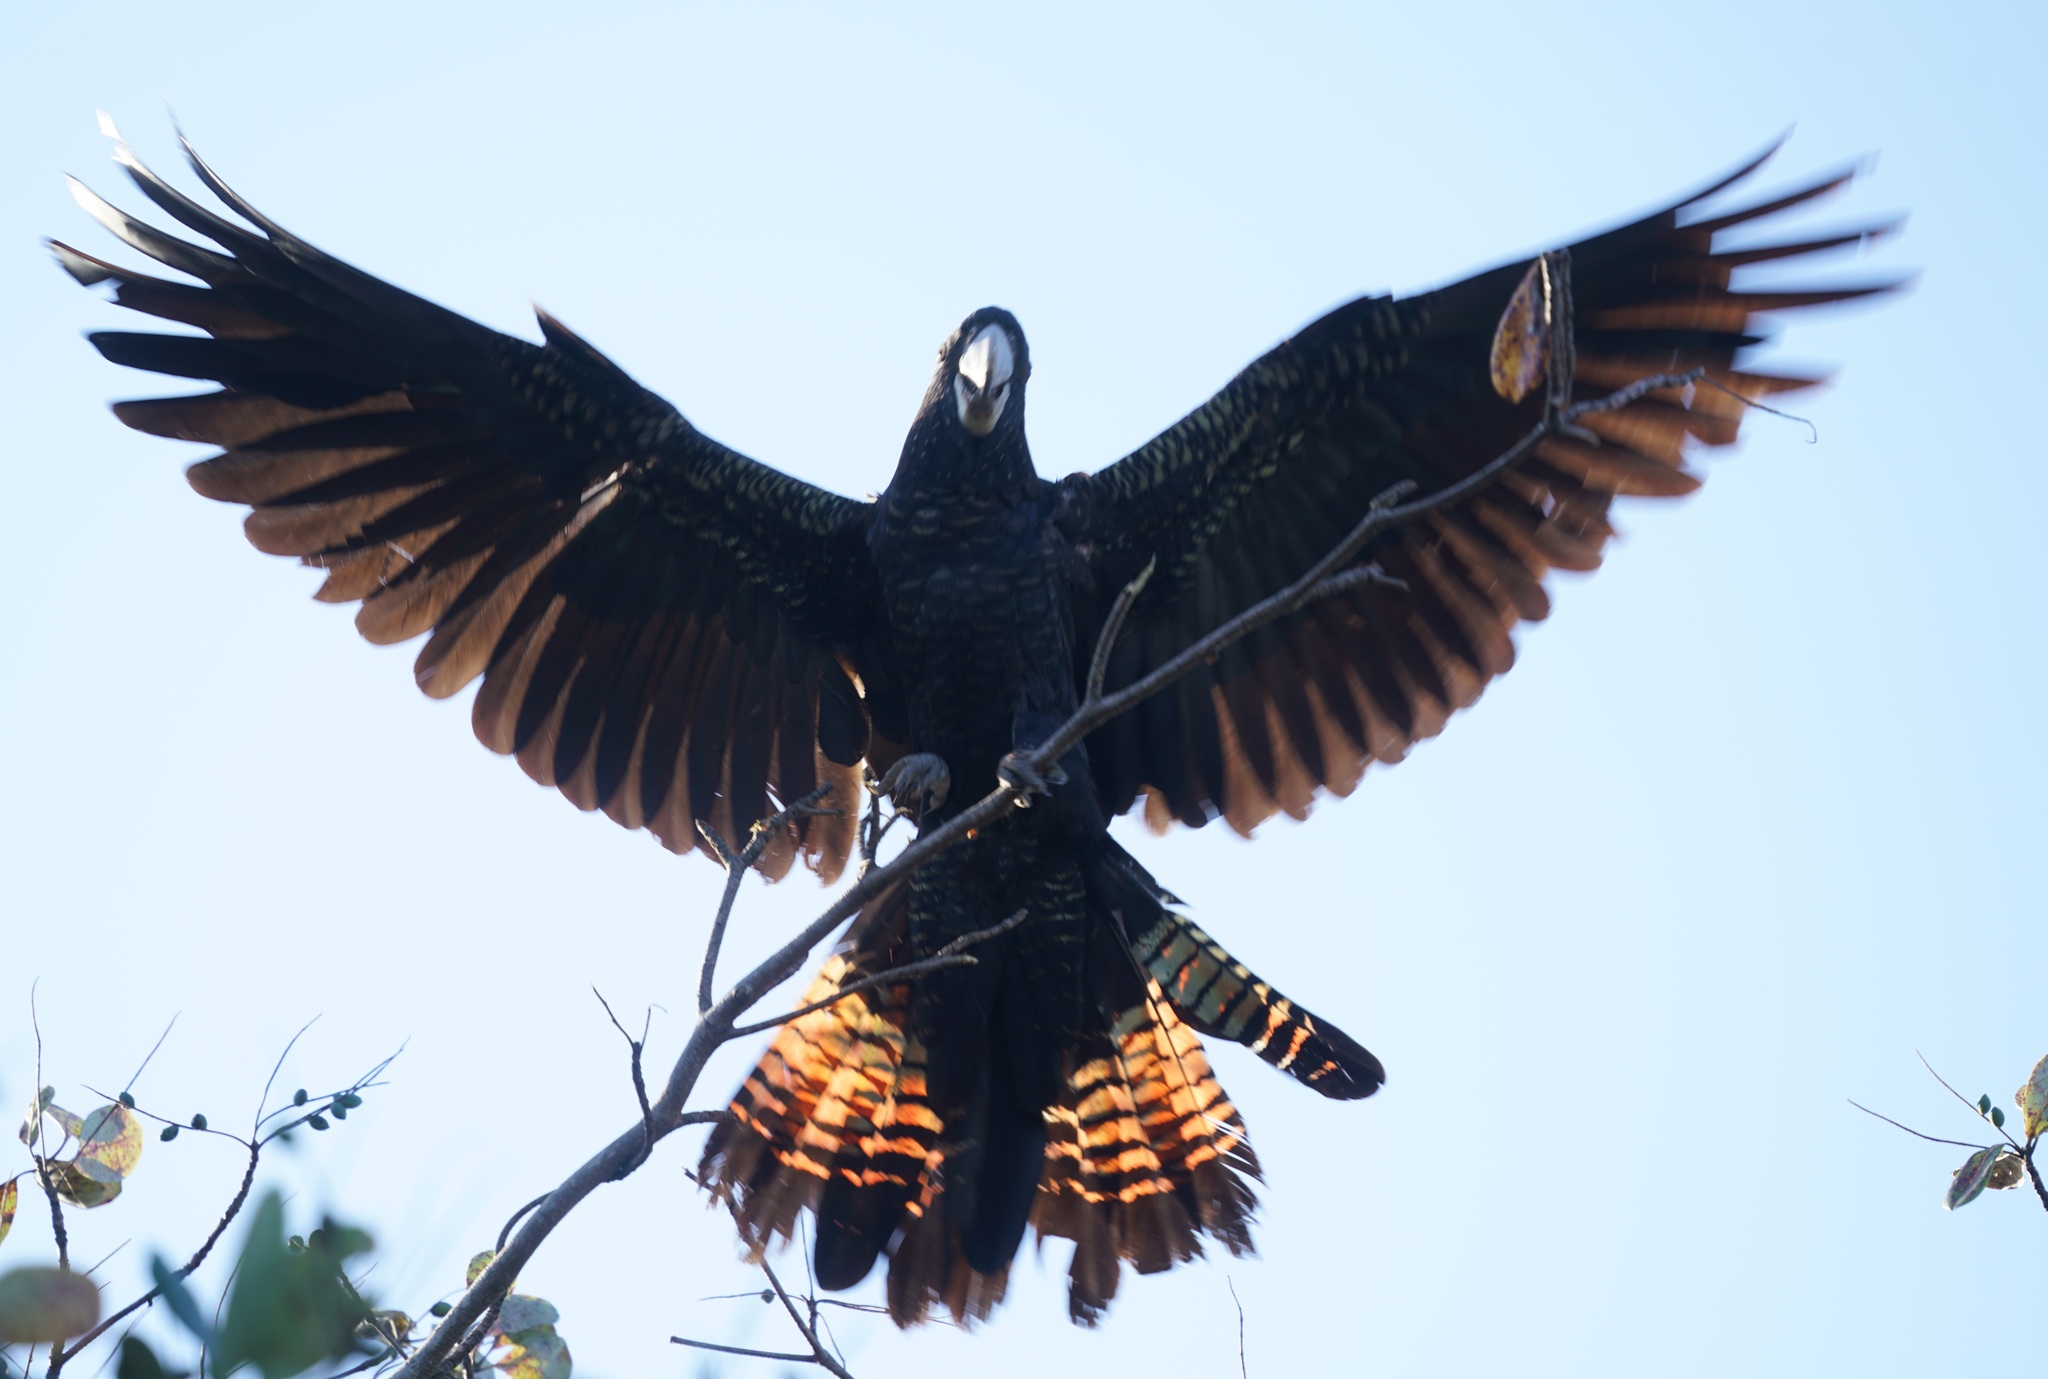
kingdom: Animalia
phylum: Chordata
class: Aves
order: Psittaciformes
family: Psittacidae
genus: Calyptorhynchus
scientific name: Calyptorhynchus banksii
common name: Red-tailed black cockatoo
